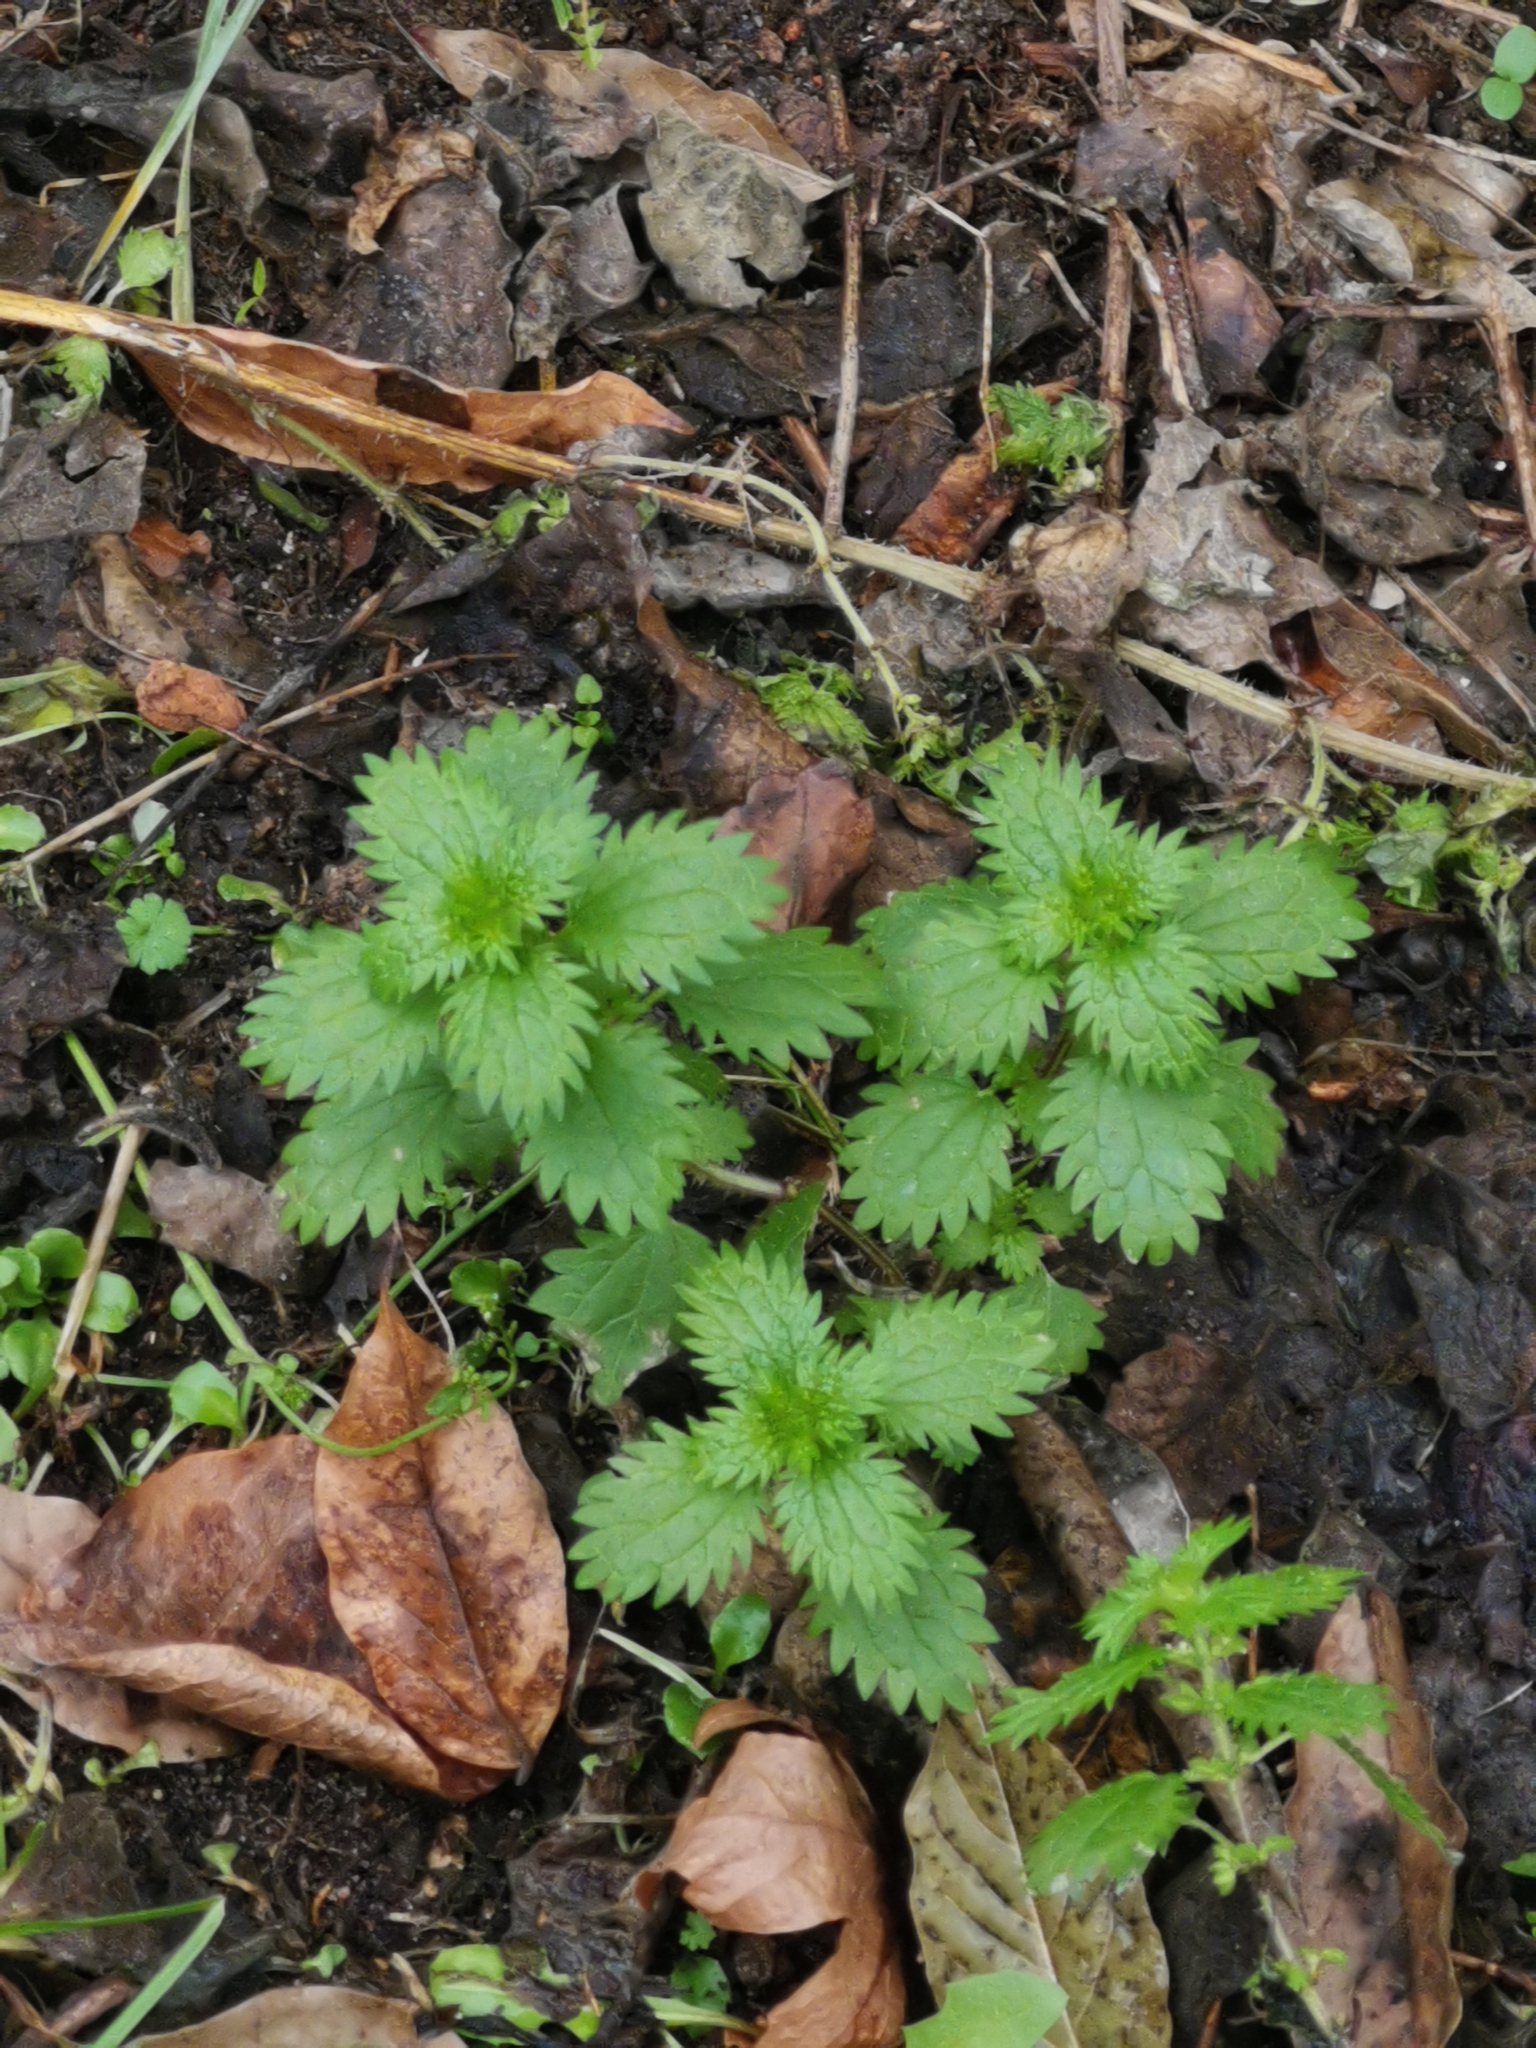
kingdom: Plantae
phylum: Tracheophyta
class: Magnoliopsida
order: Rosales
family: Urticaceae
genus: Urtica
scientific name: Urtica urens
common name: Dwarf nettle
